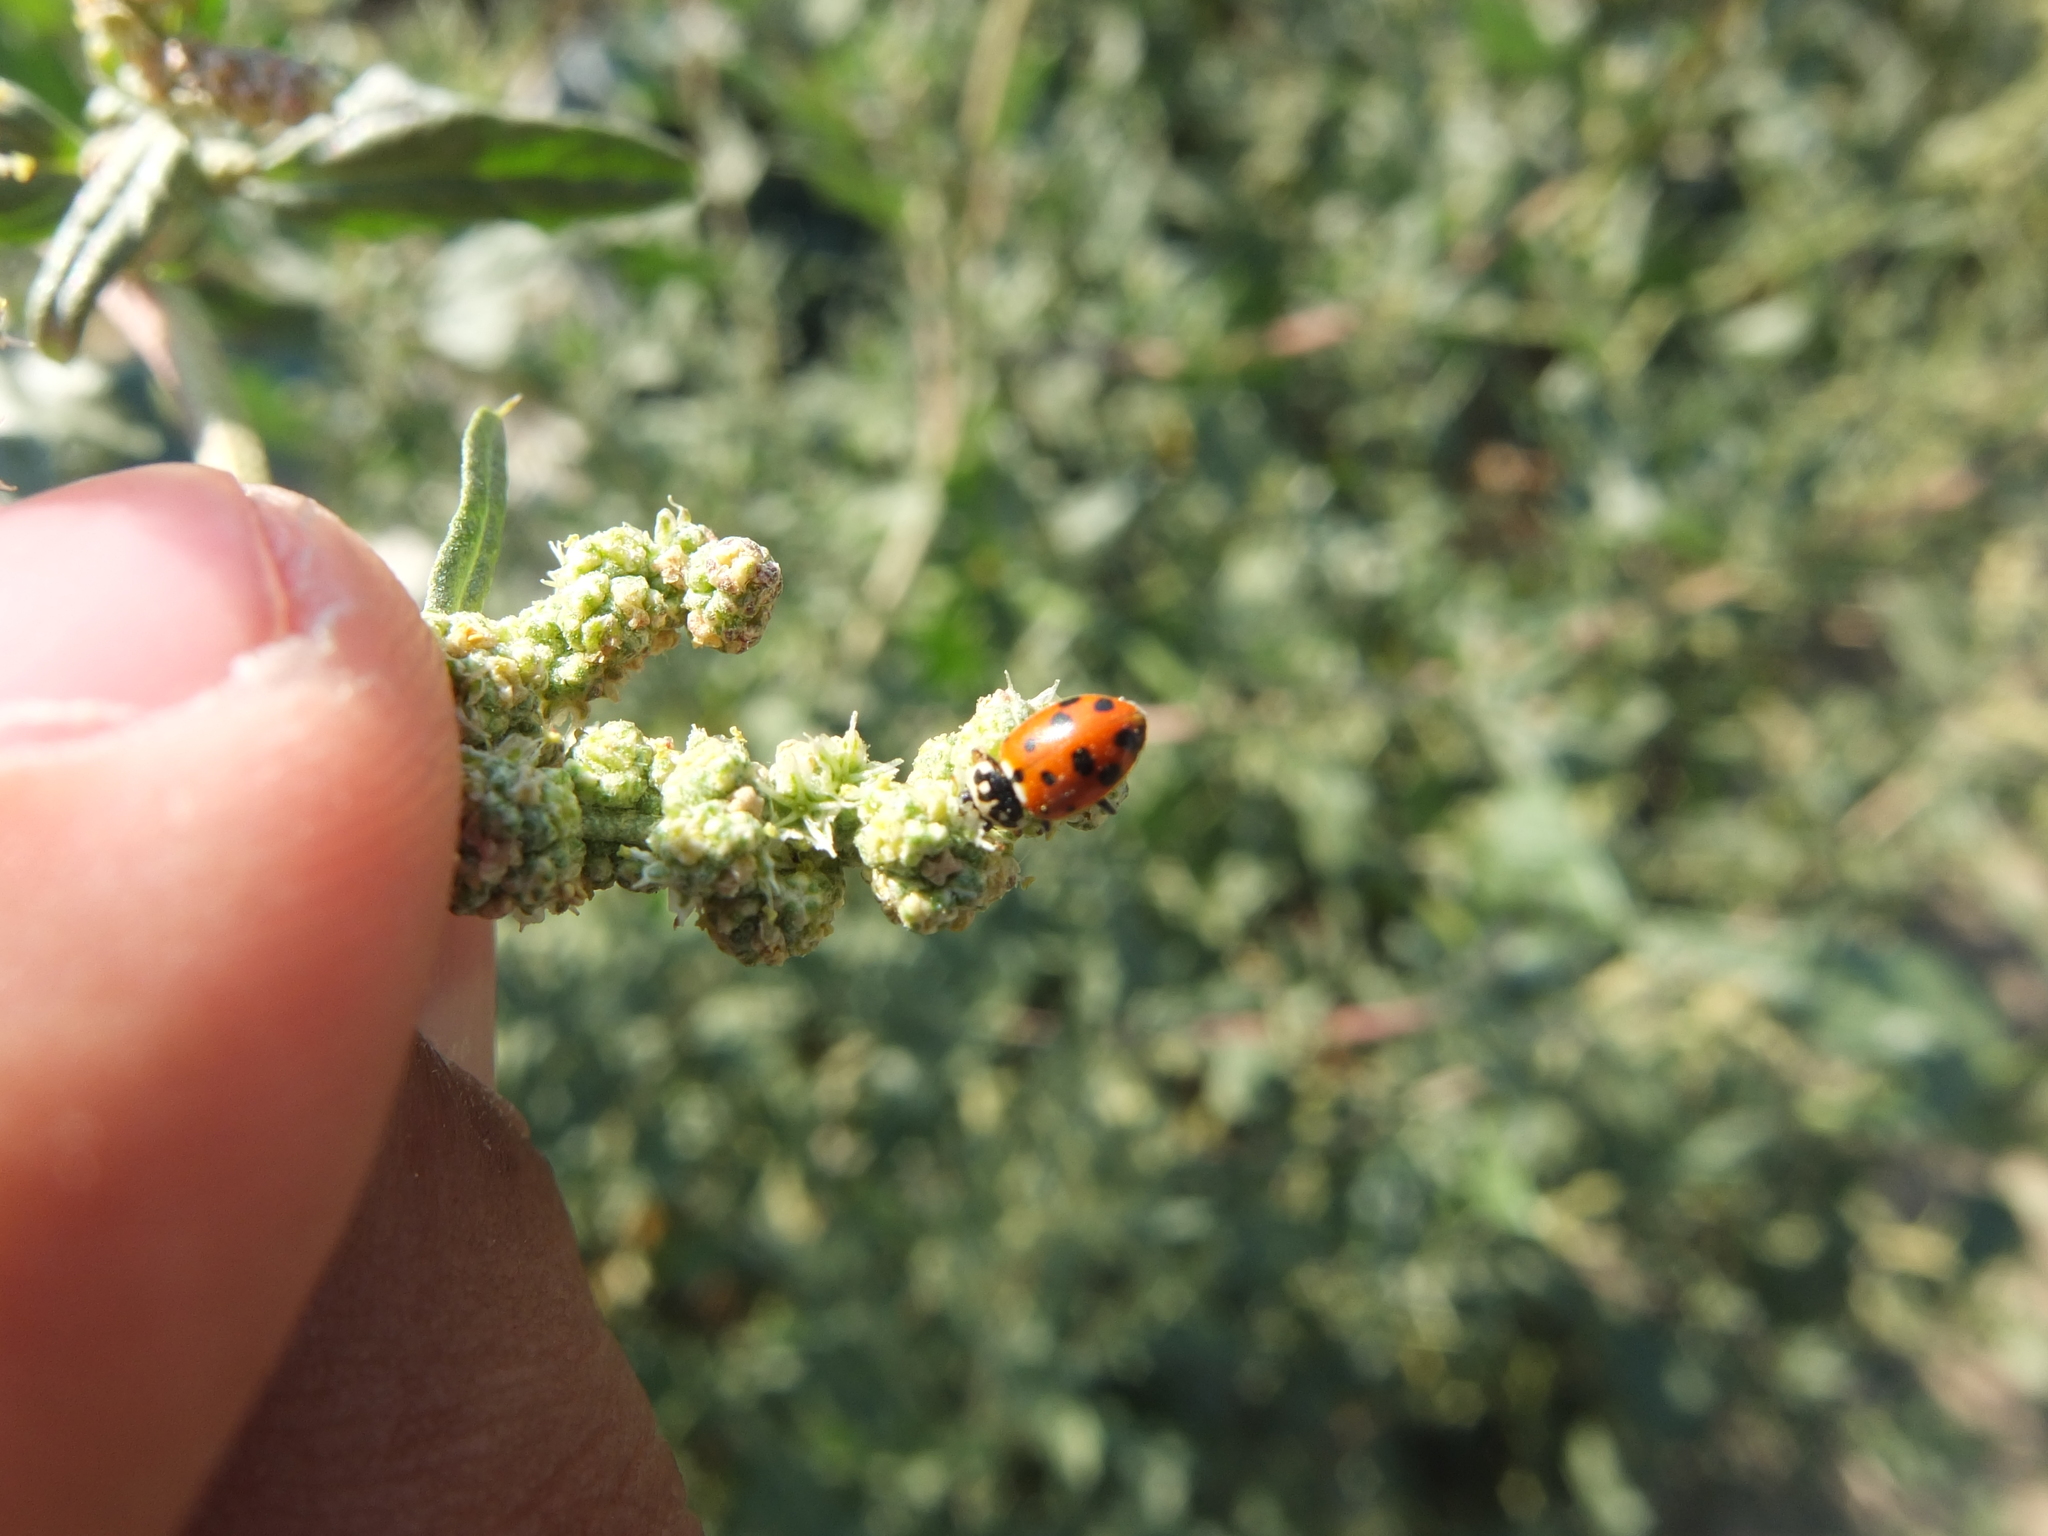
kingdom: Animalia
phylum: Arthropoda
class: Insecta
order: Coleoptera
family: Coccinellidae
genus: Hippodamia
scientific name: Hippodamia variegata
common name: Ladybird beetle
